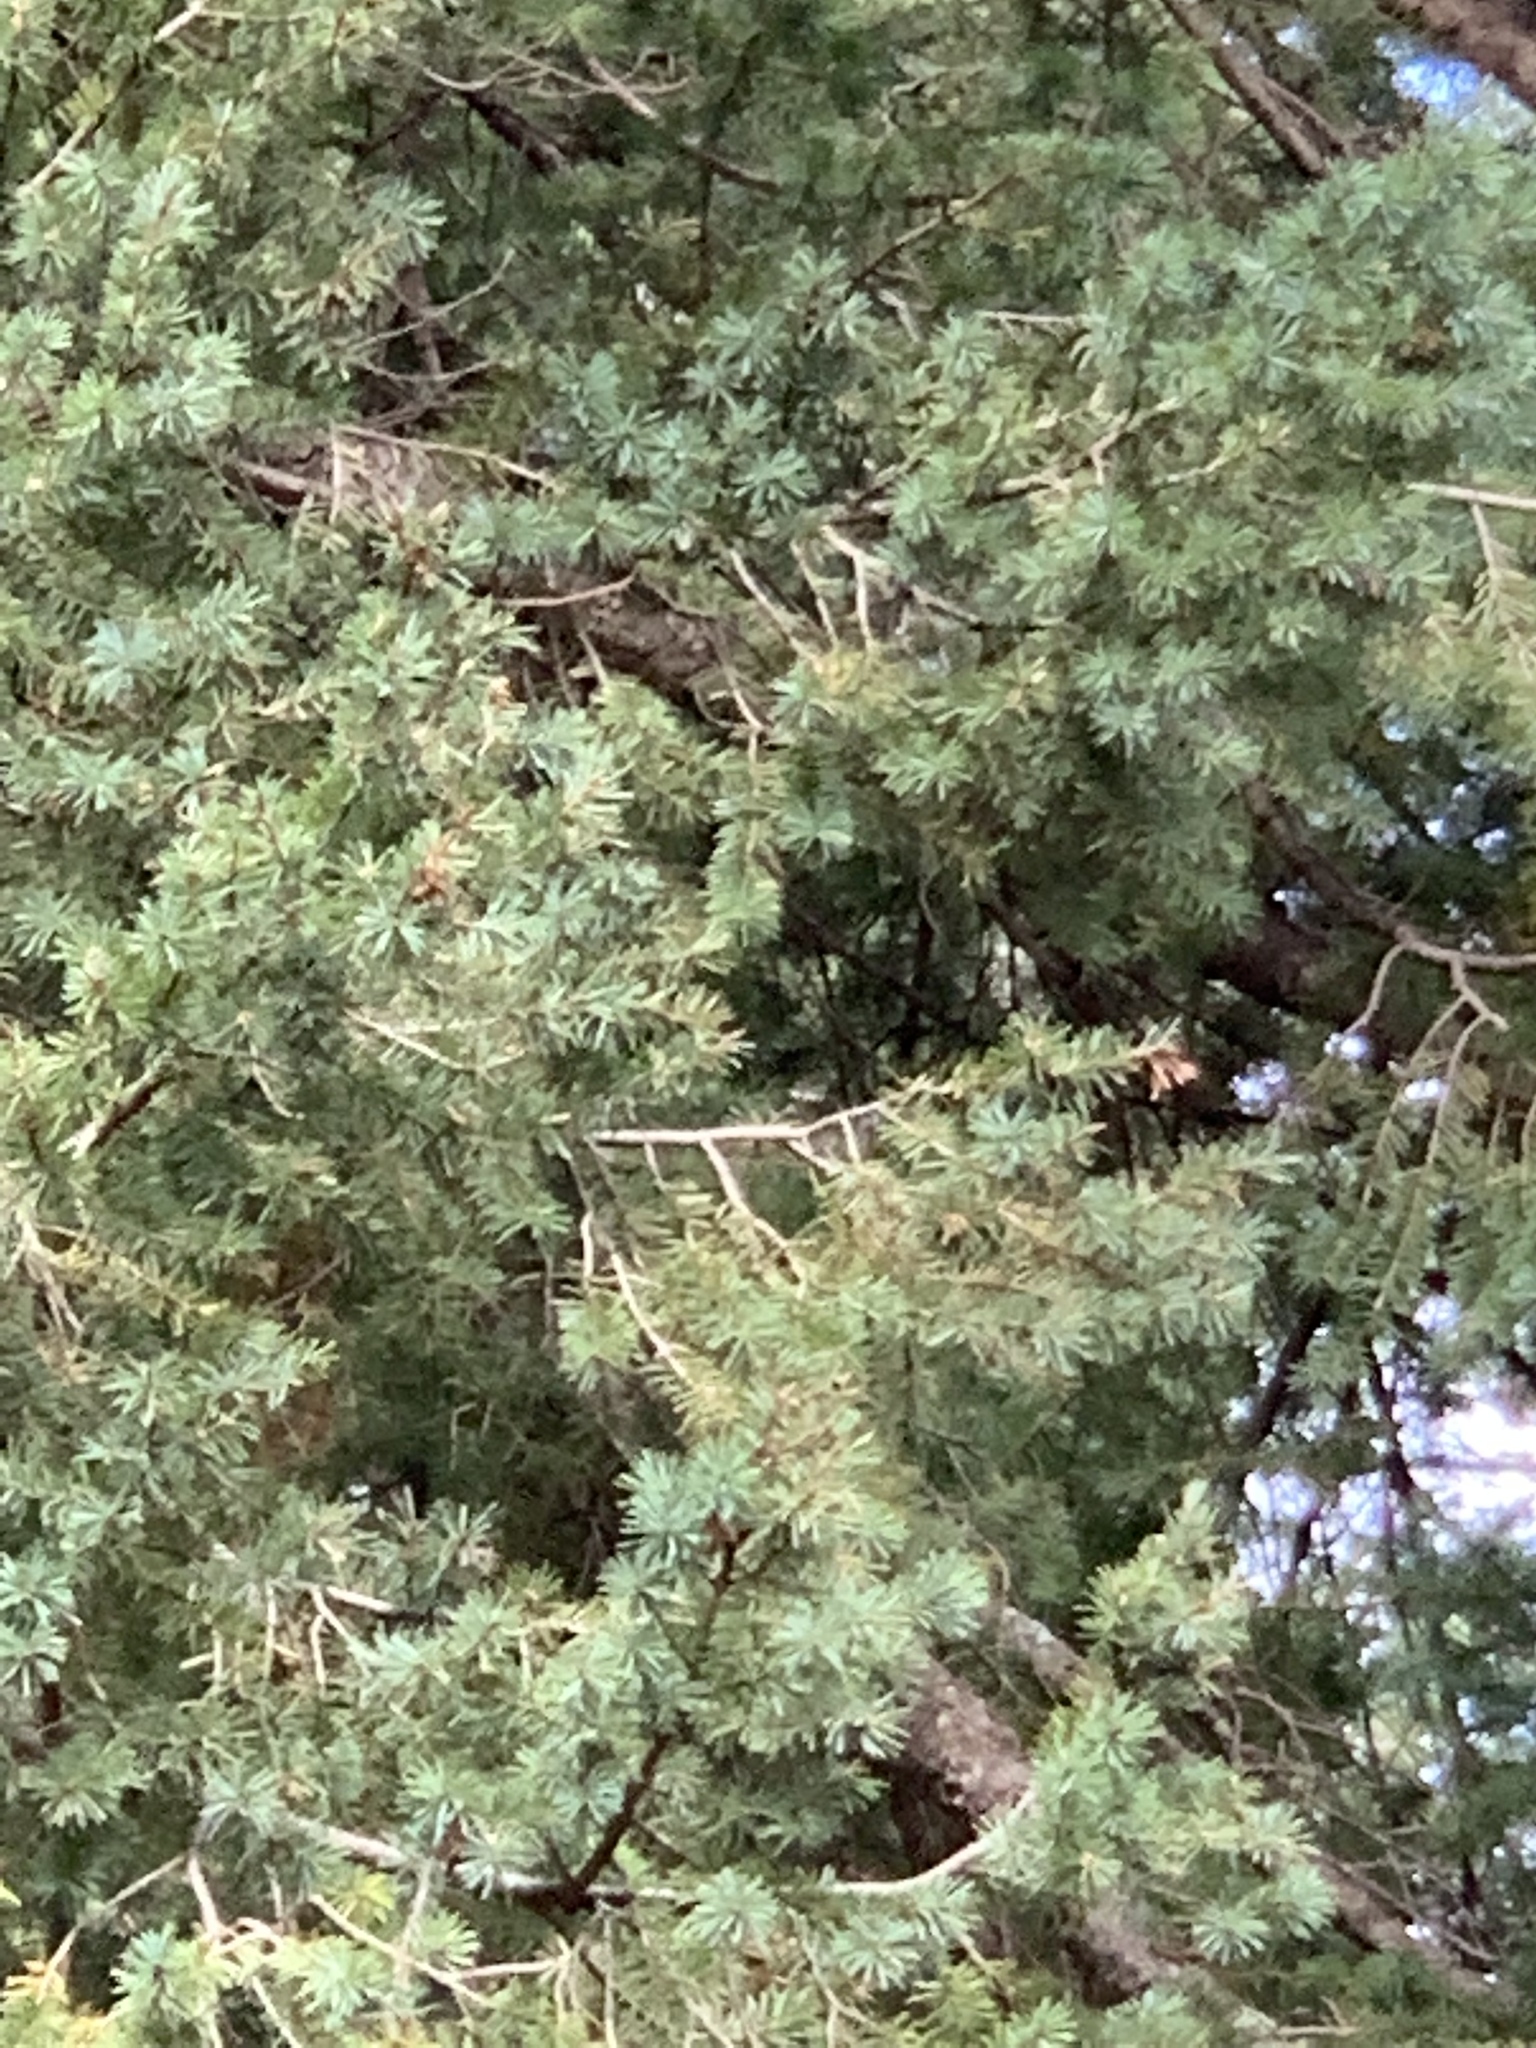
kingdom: Plantae
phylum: Tracheophyta
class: Pinopsida
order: Pinales
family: Pinaceae
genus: Pseudotsuga
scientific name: Pseudotsuga menziesii
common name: Douglas fir
